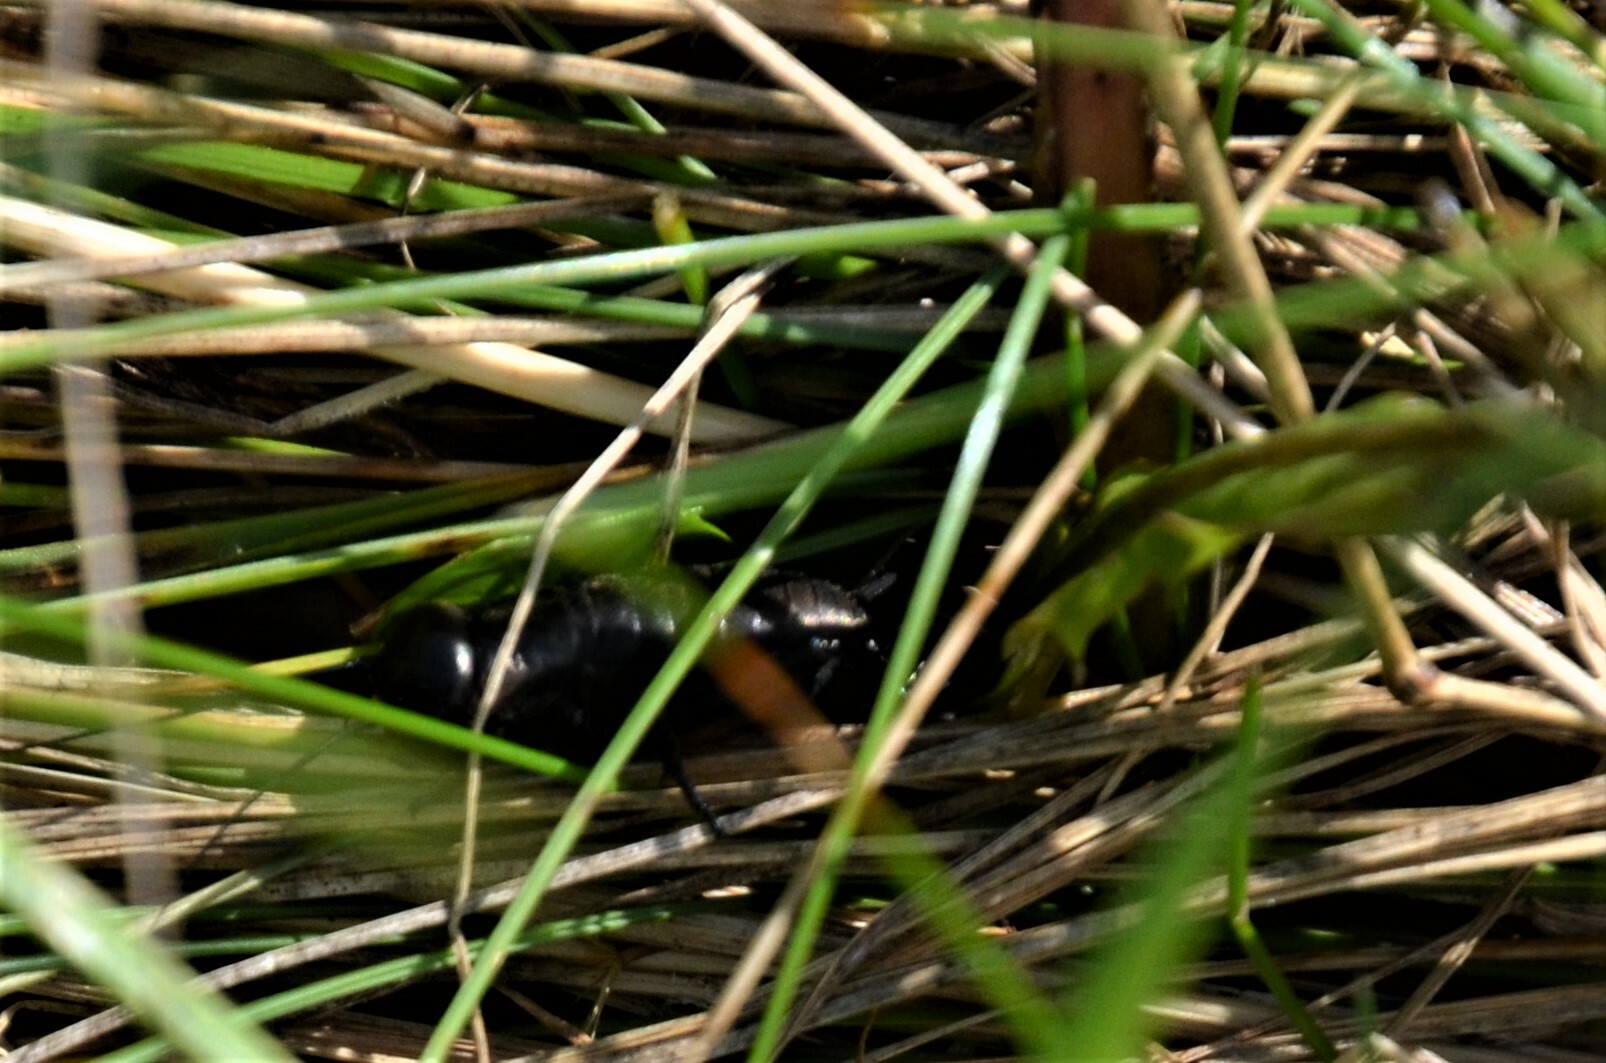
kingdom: Animalia
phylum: Arthropoda
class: Insecta
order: Orthoptera
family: Gryllidae
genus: Gryllus
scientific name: Gryllus campestris
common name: Field cricket
